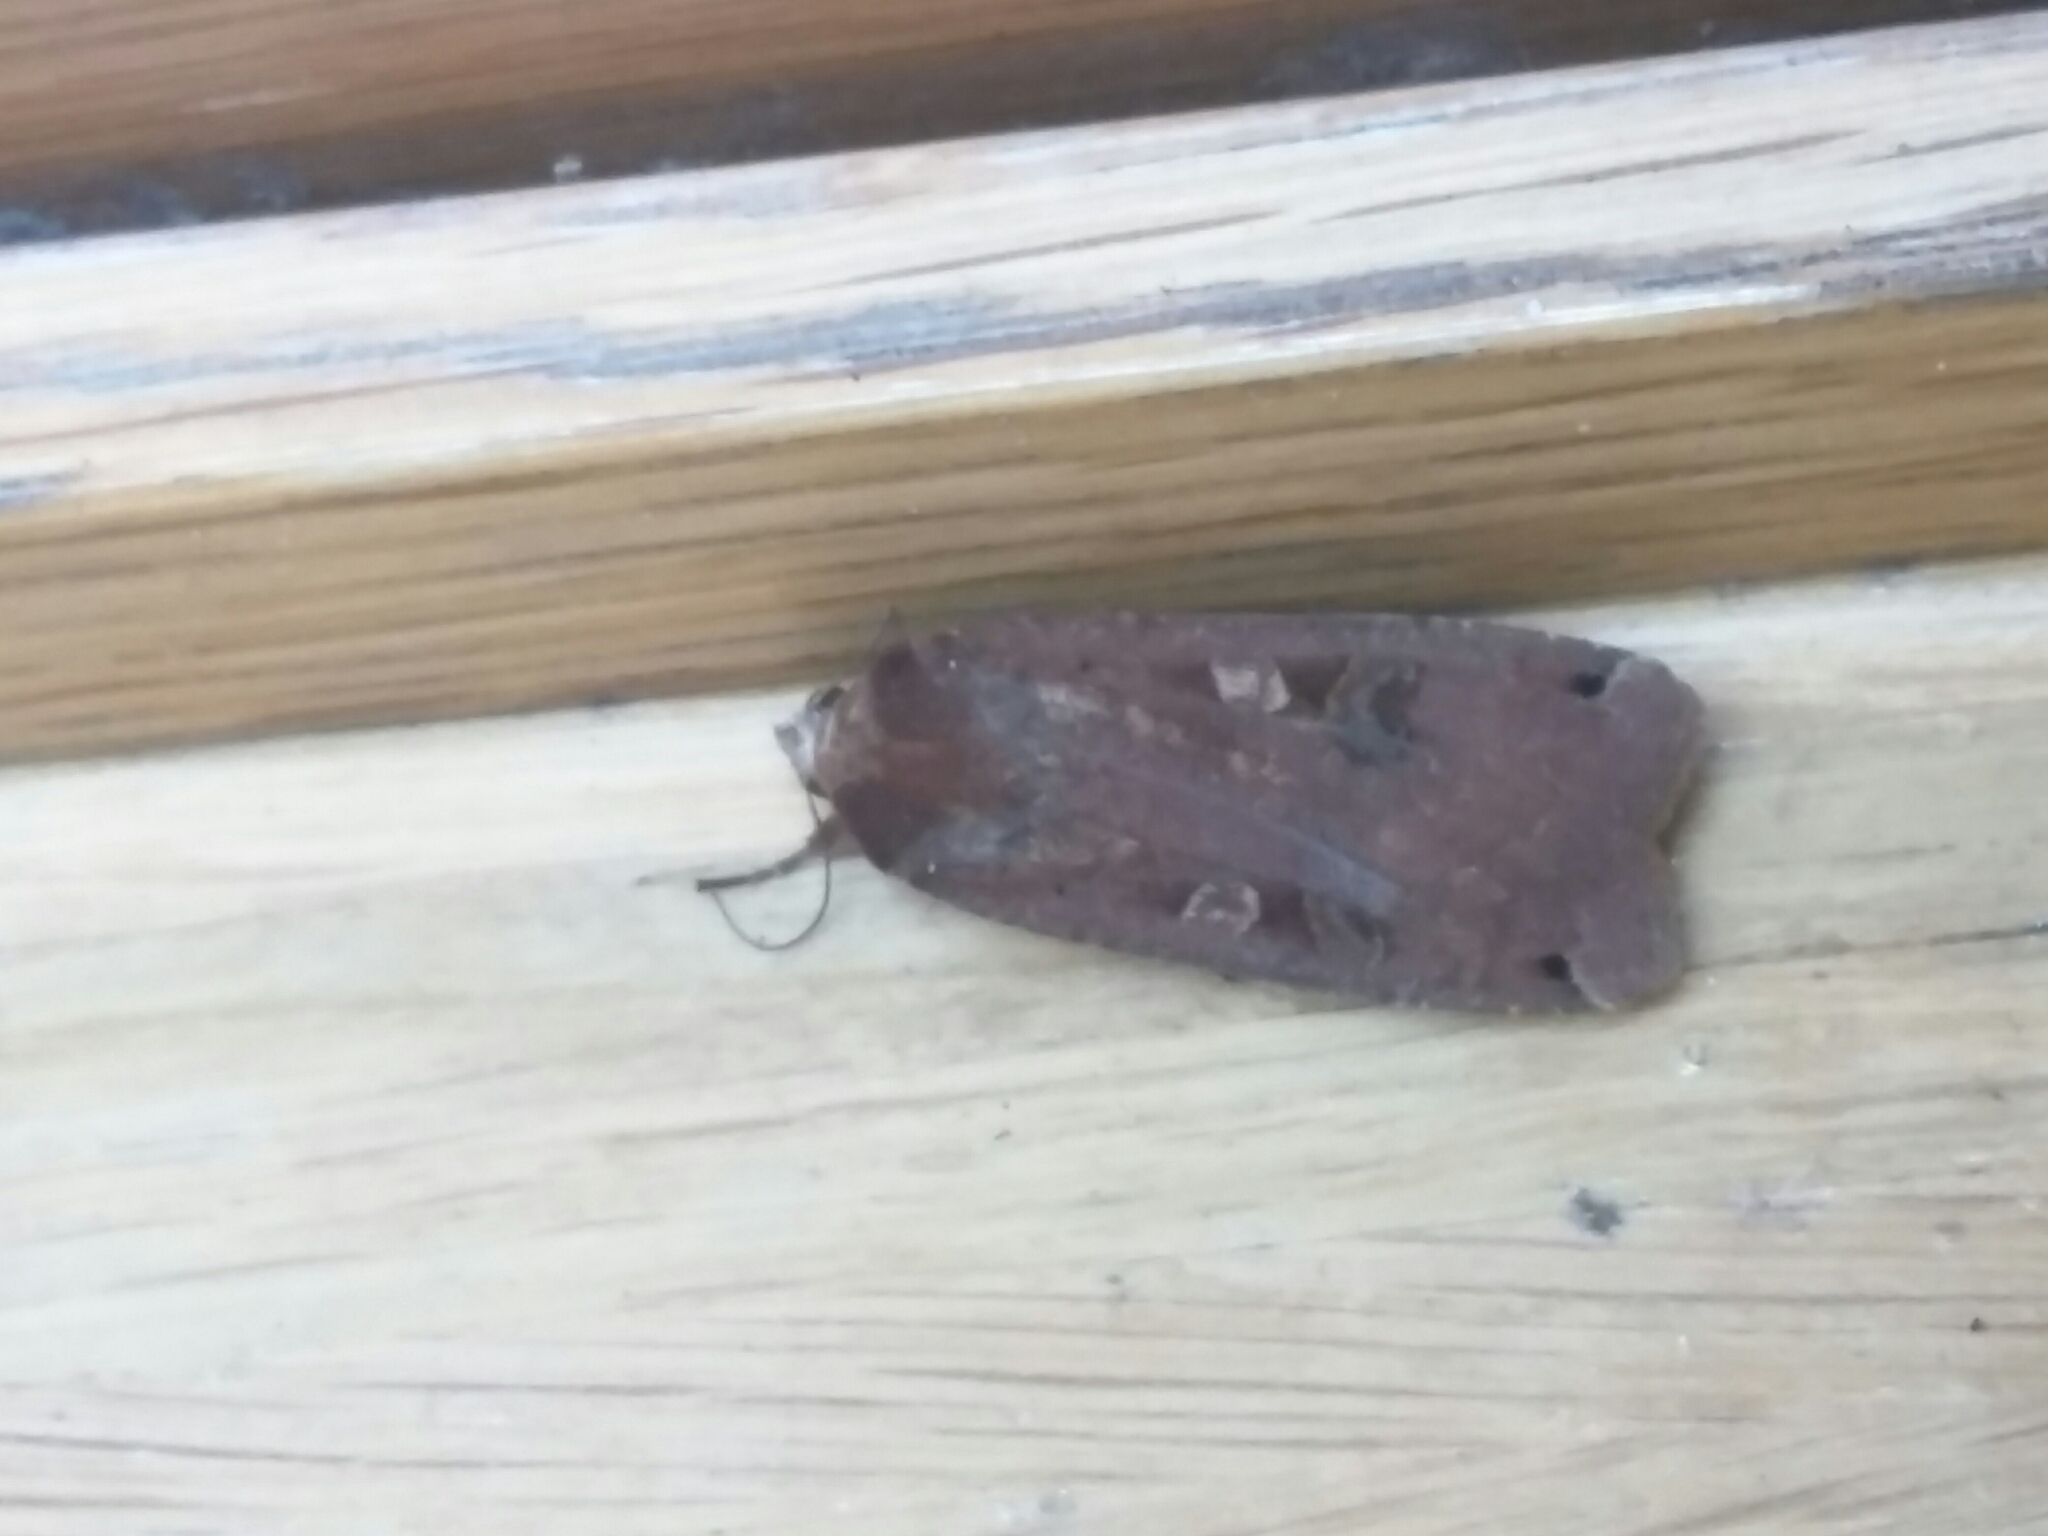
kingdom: Animalia
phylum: Arthropoda
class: Insecta
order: Lepidoptera
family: Noctuidae
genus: Noctua
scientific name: Noctua pronuba
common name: Large yellow underwing
